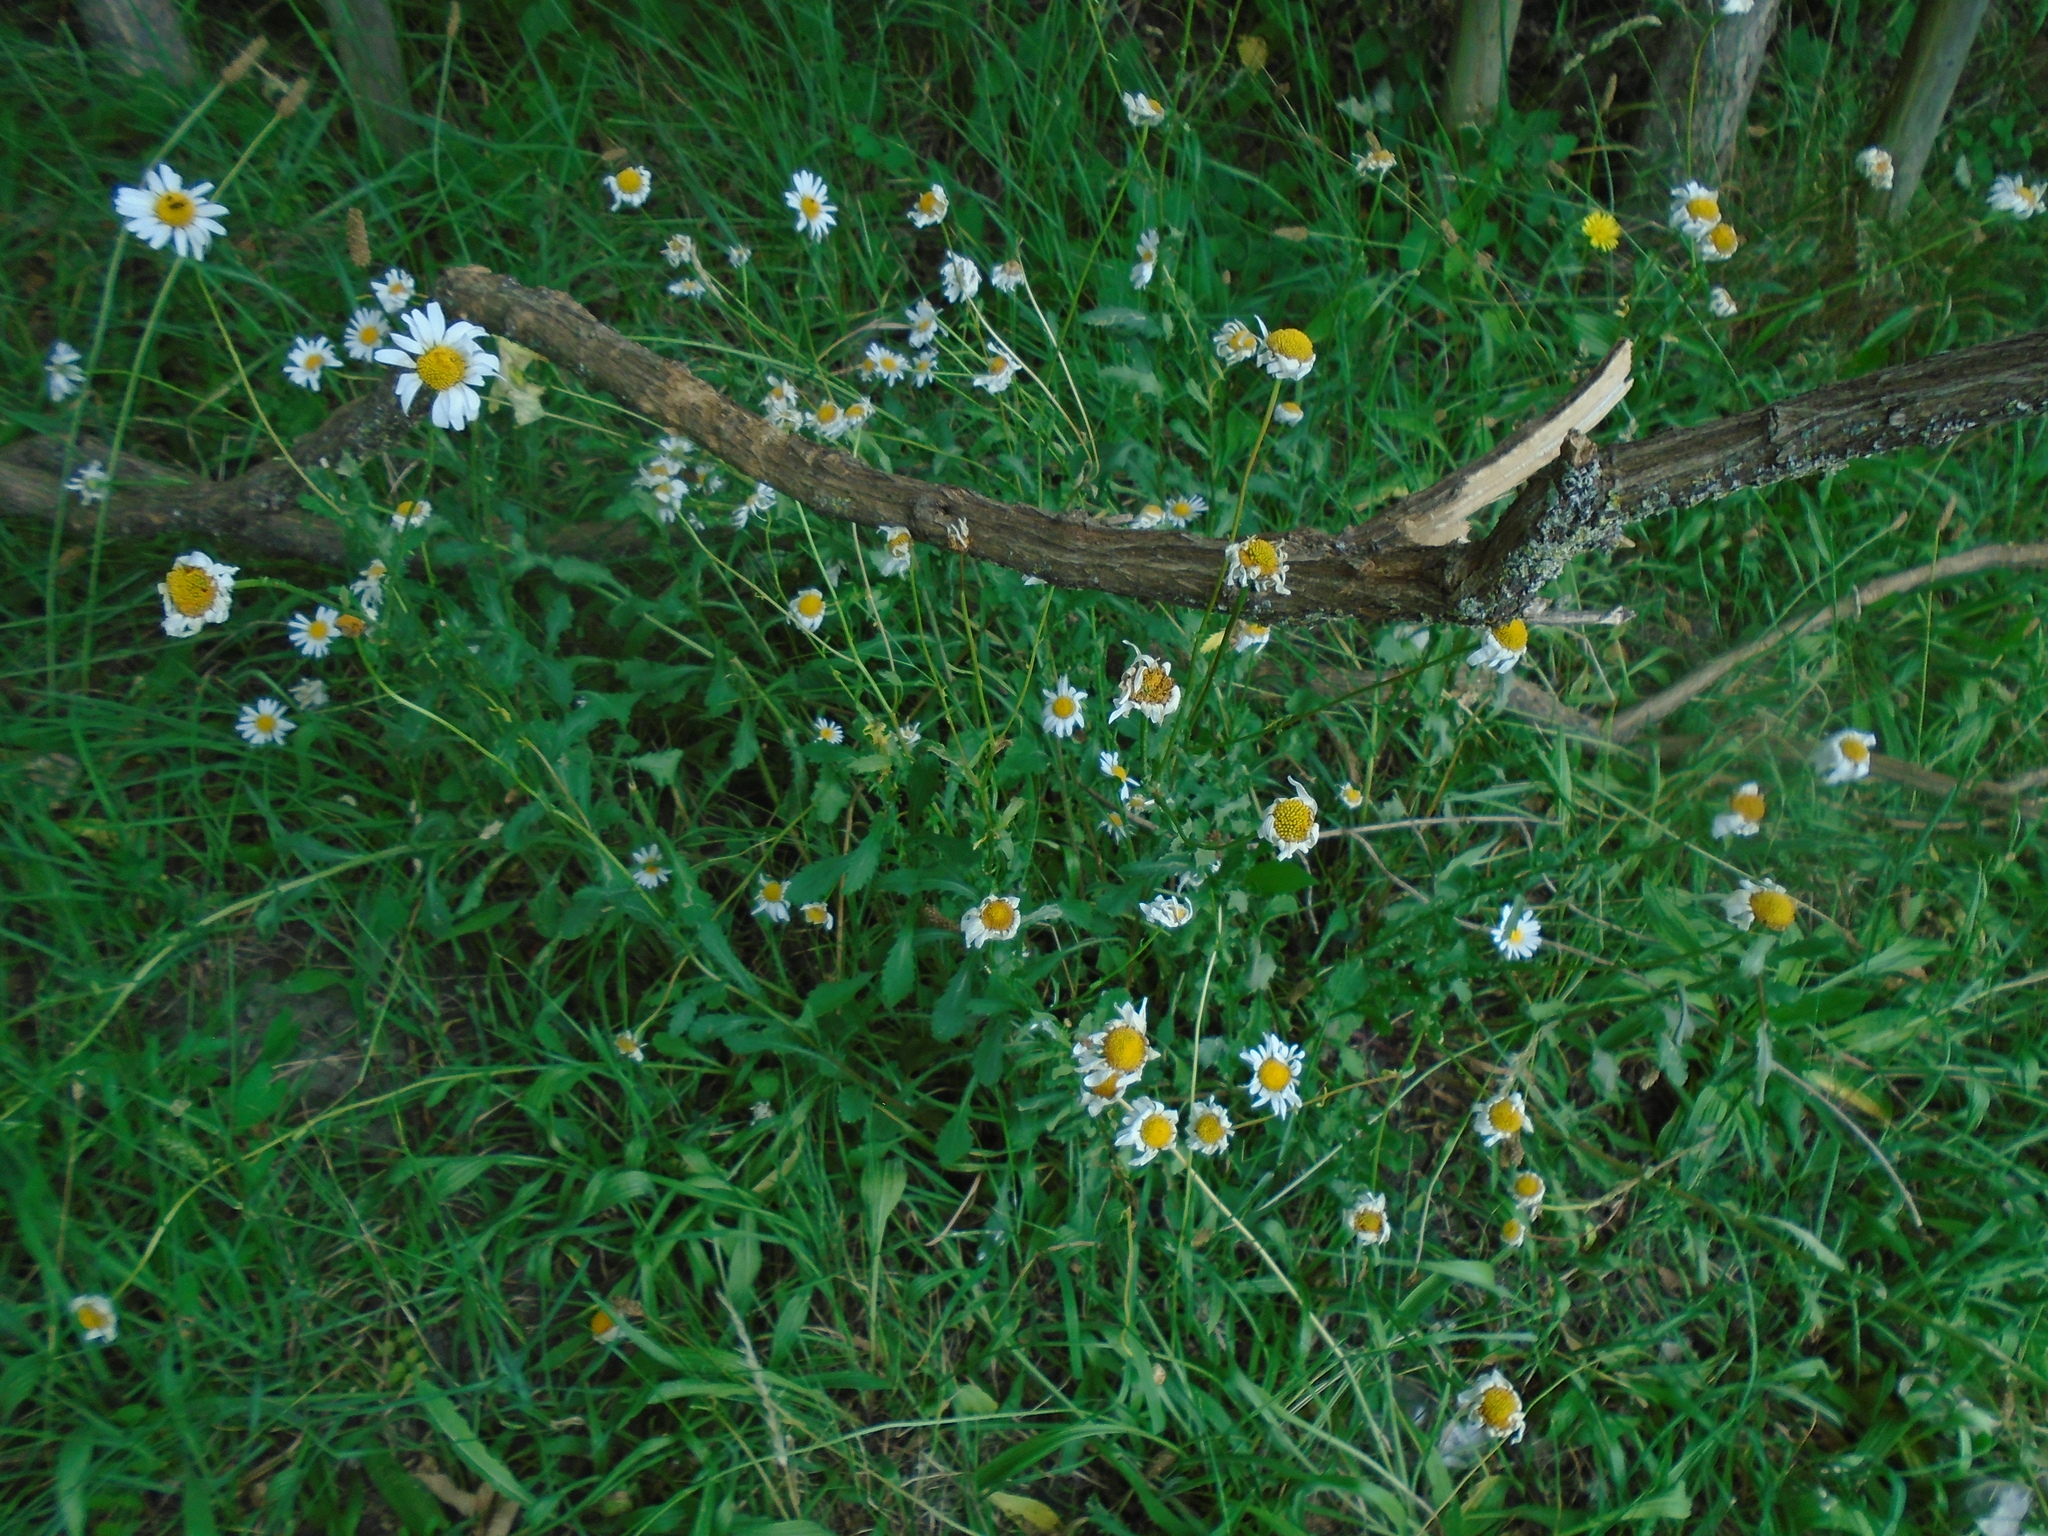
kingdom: Plantae
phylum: Tracheophyta
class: Magnoliopsida
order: Asterales
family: Asteraceae
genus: Leucanthemum
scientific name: Leucanthemum vulgare
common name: Oxeye daisy
